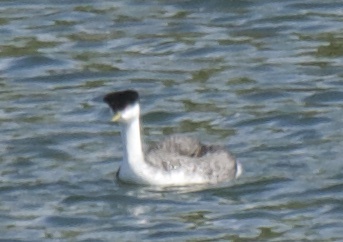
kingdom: Animalia
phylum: Chordata
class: Aves
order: Podicipediformes
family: Podicipedidae
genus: Aechmophorus
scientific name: Aechmophorus occidentalis
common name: Western grebe
